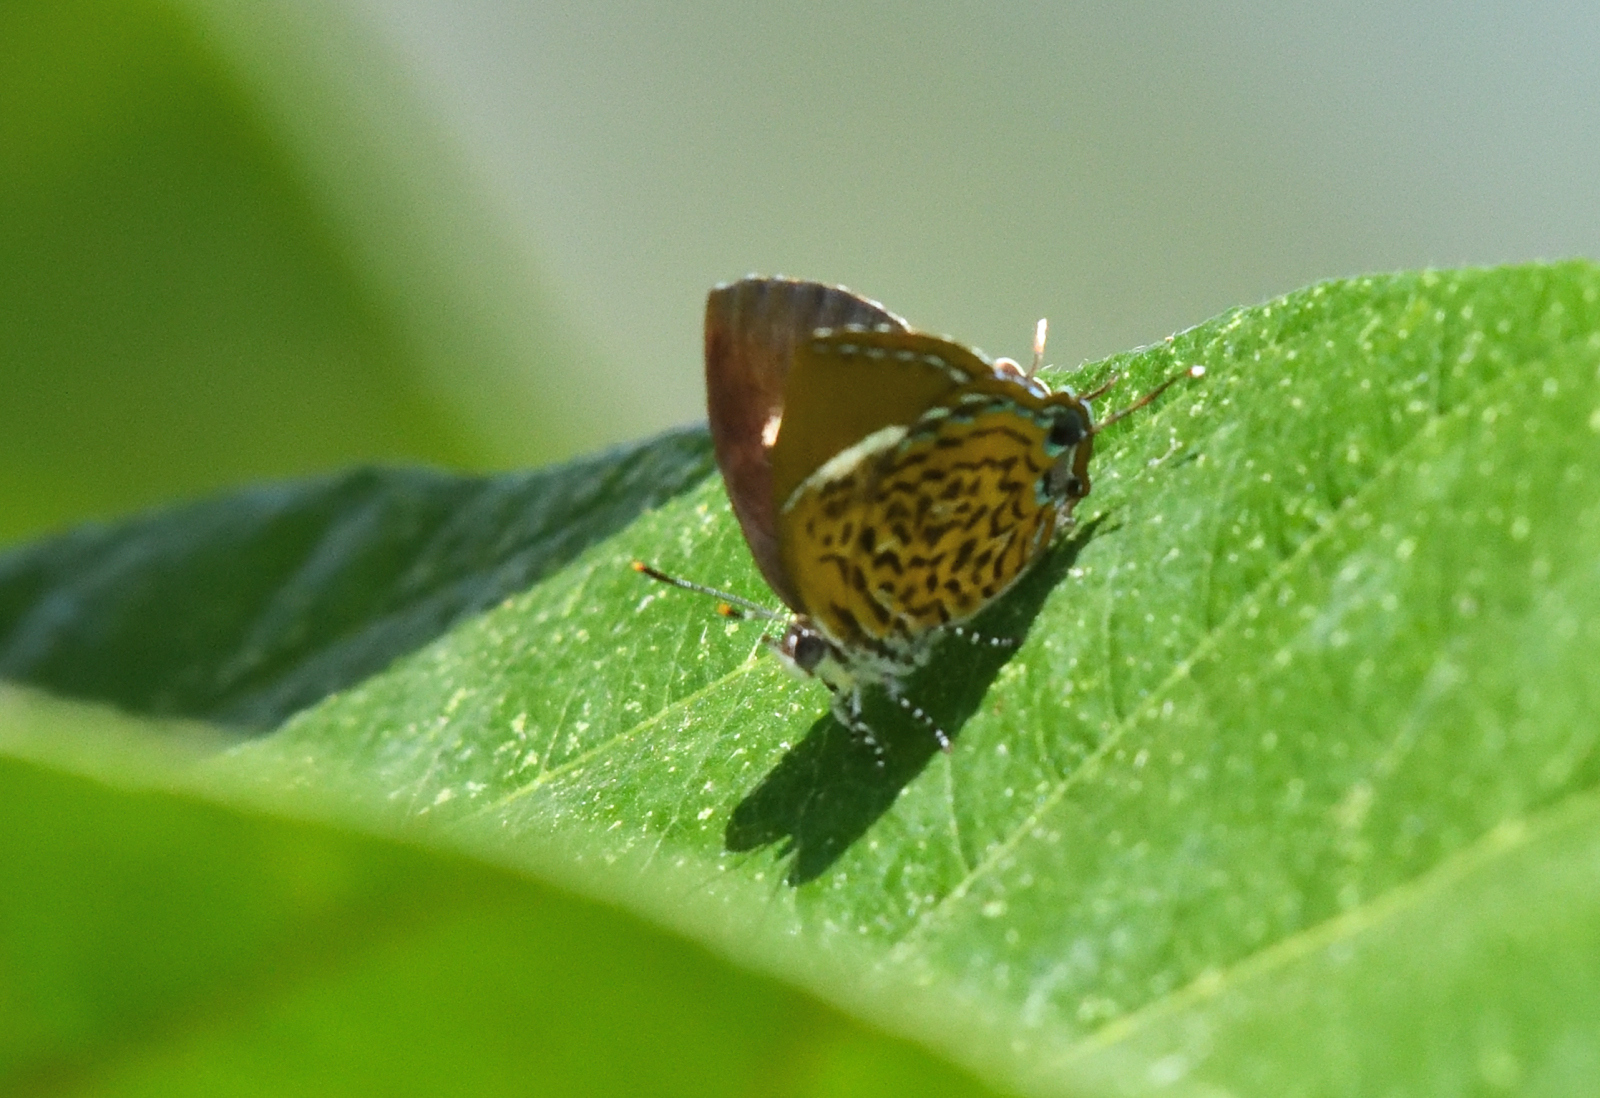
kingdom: Animalia
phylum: Arthropoda
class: Insecta
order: Lepidoptera
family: Lycaenidae
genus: Rathinda
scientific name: Rathinda amor
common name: Monkey puzzle
